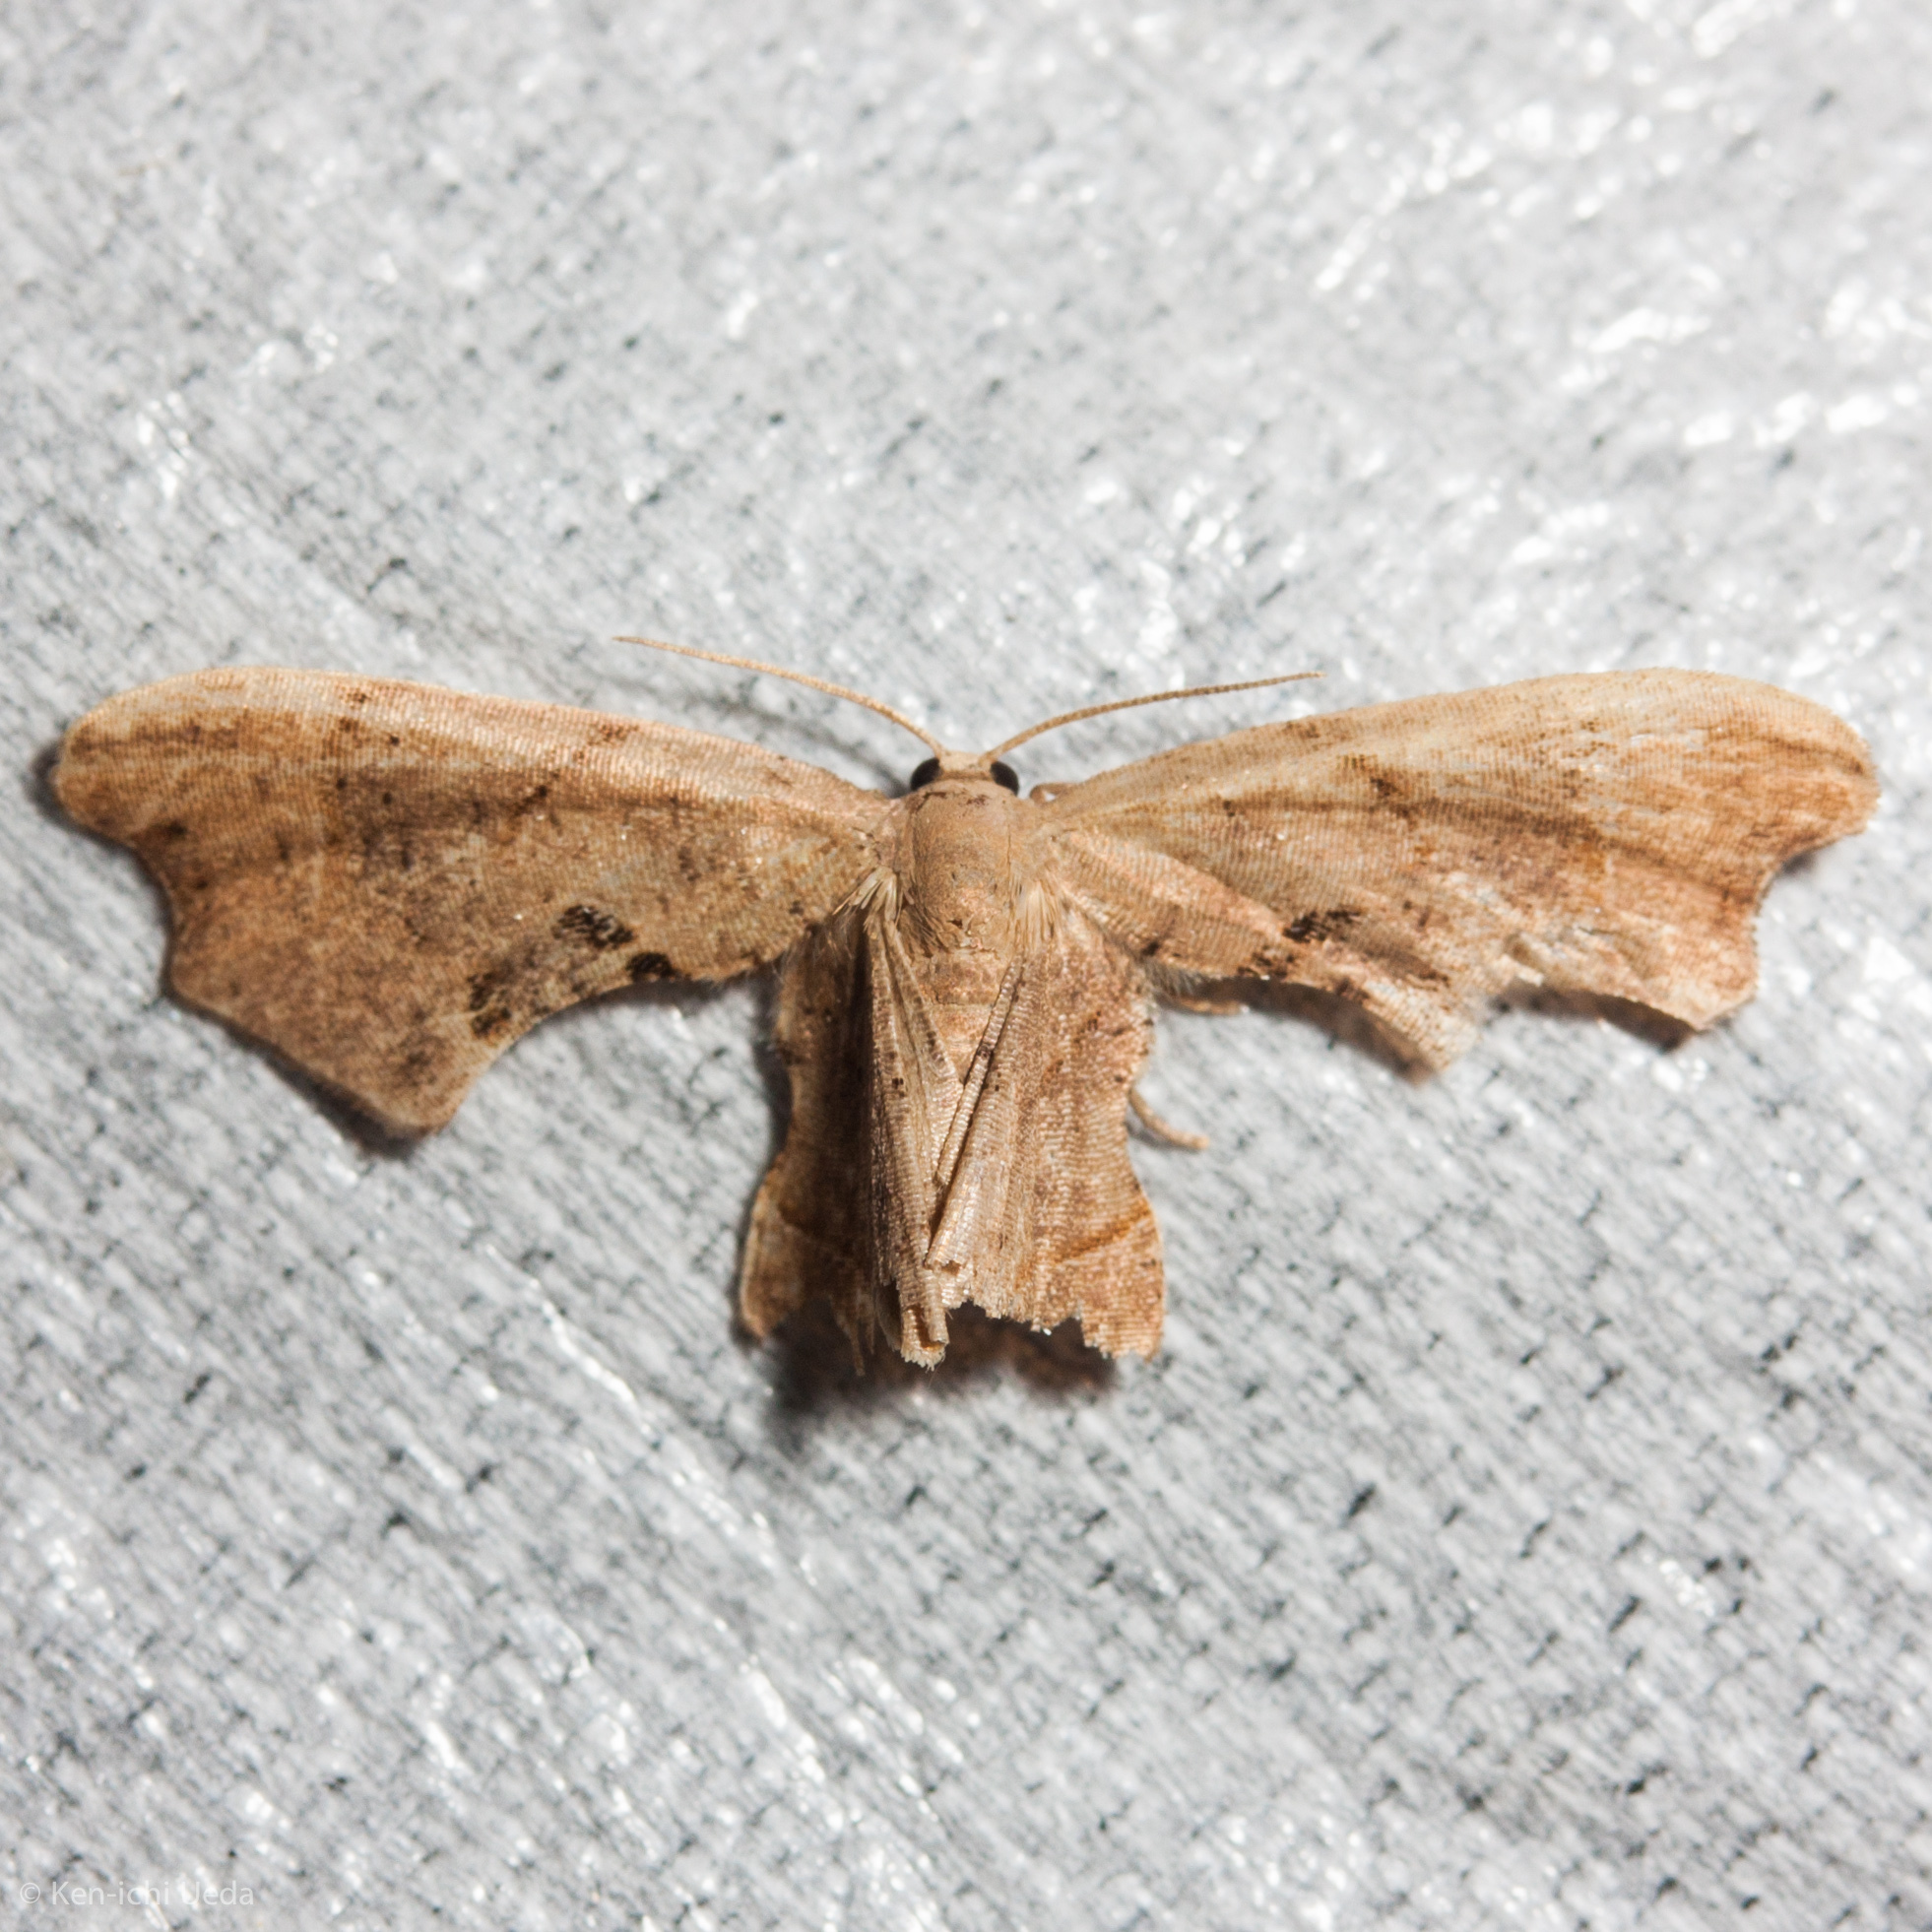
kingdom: Animalia
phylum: Arthropoda
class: Insecta
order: Lepidoptera
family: Uraniidae
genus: Epiplema
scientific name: Epiplema Calledapteryx dryopterata
